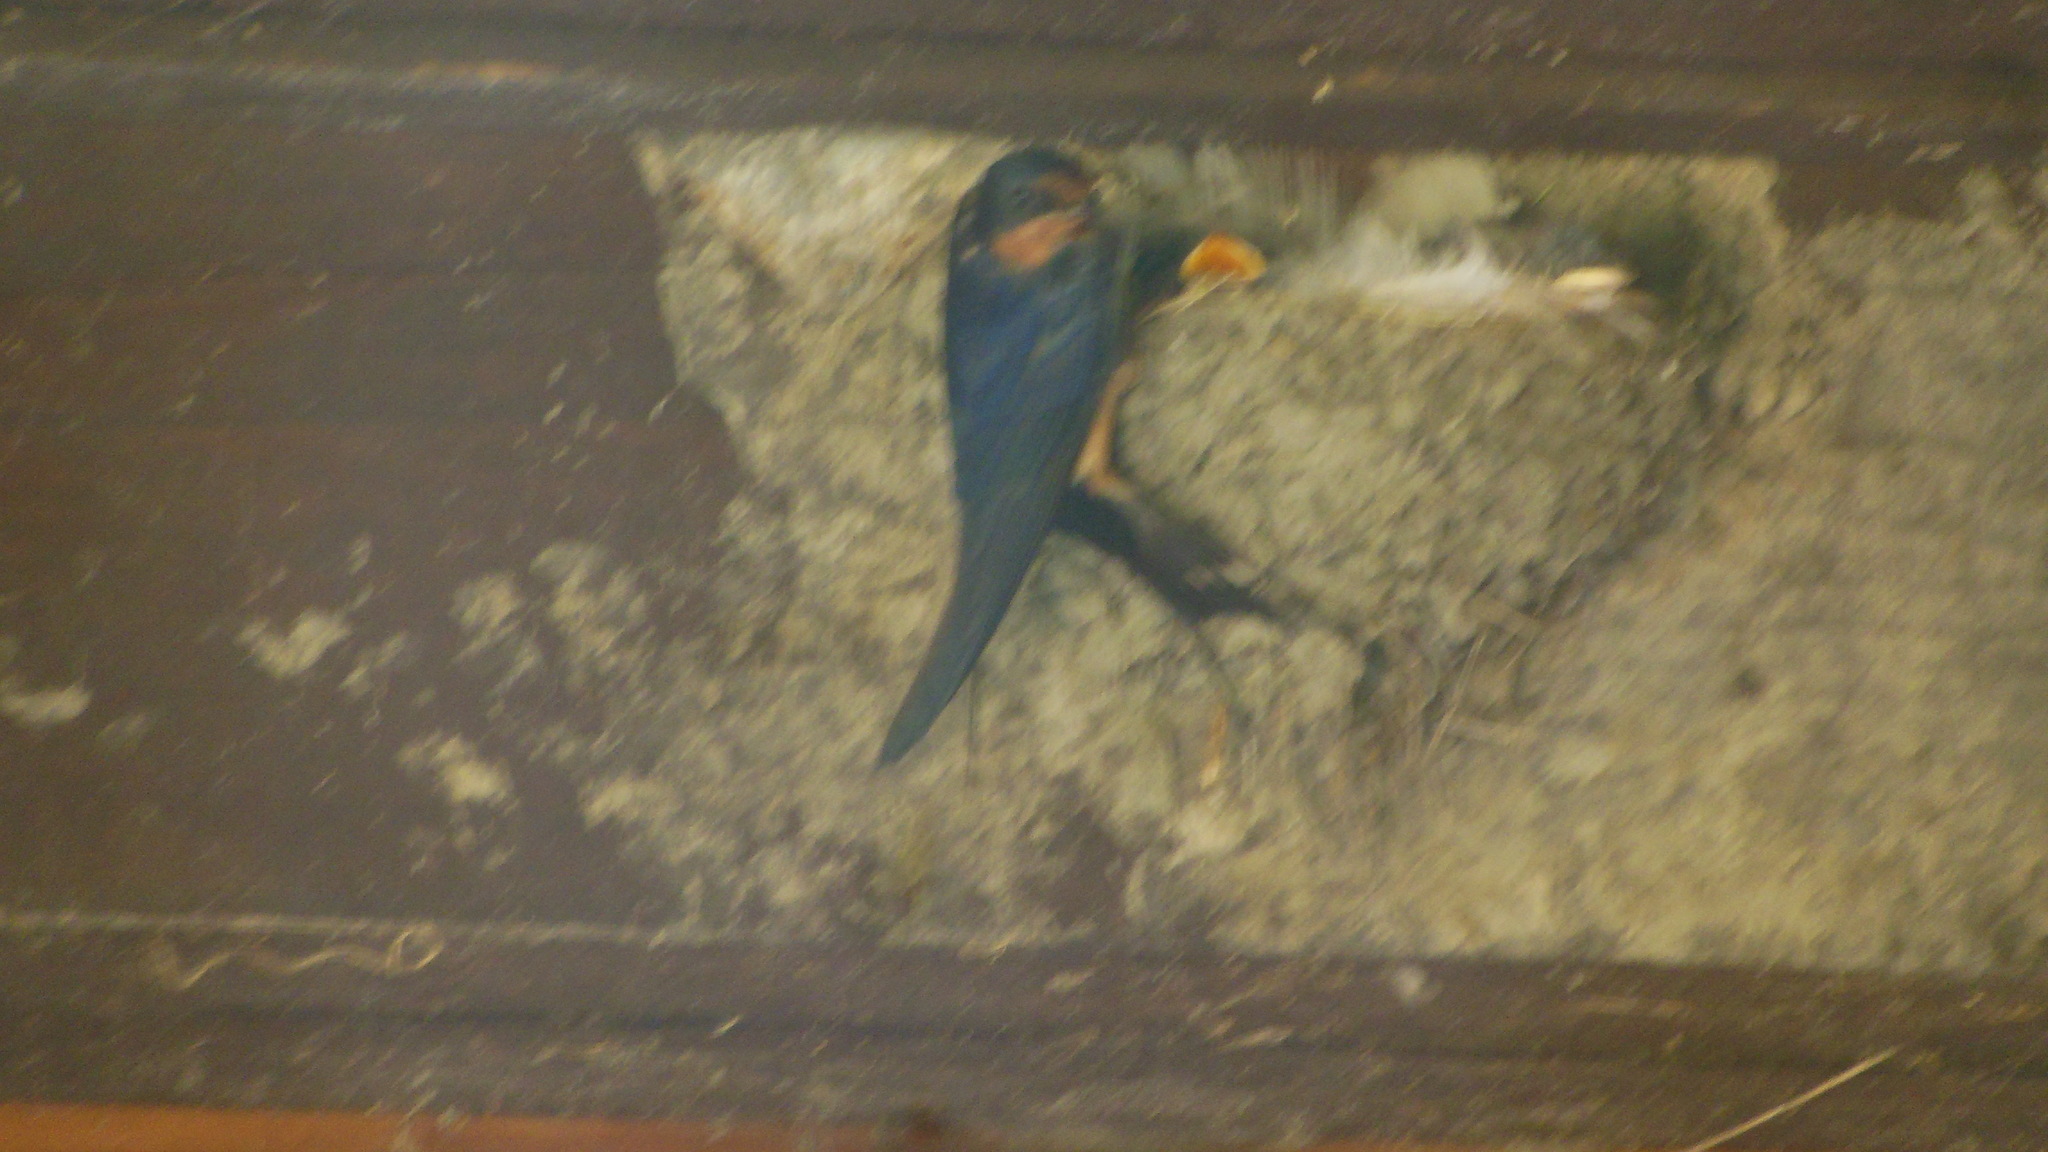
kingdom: Animalia
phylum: Chordata
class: Aves
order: Passeriformes
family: Hirundinidae
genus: Hirundo
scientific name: Hirundo rustica
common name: Barn swallow
